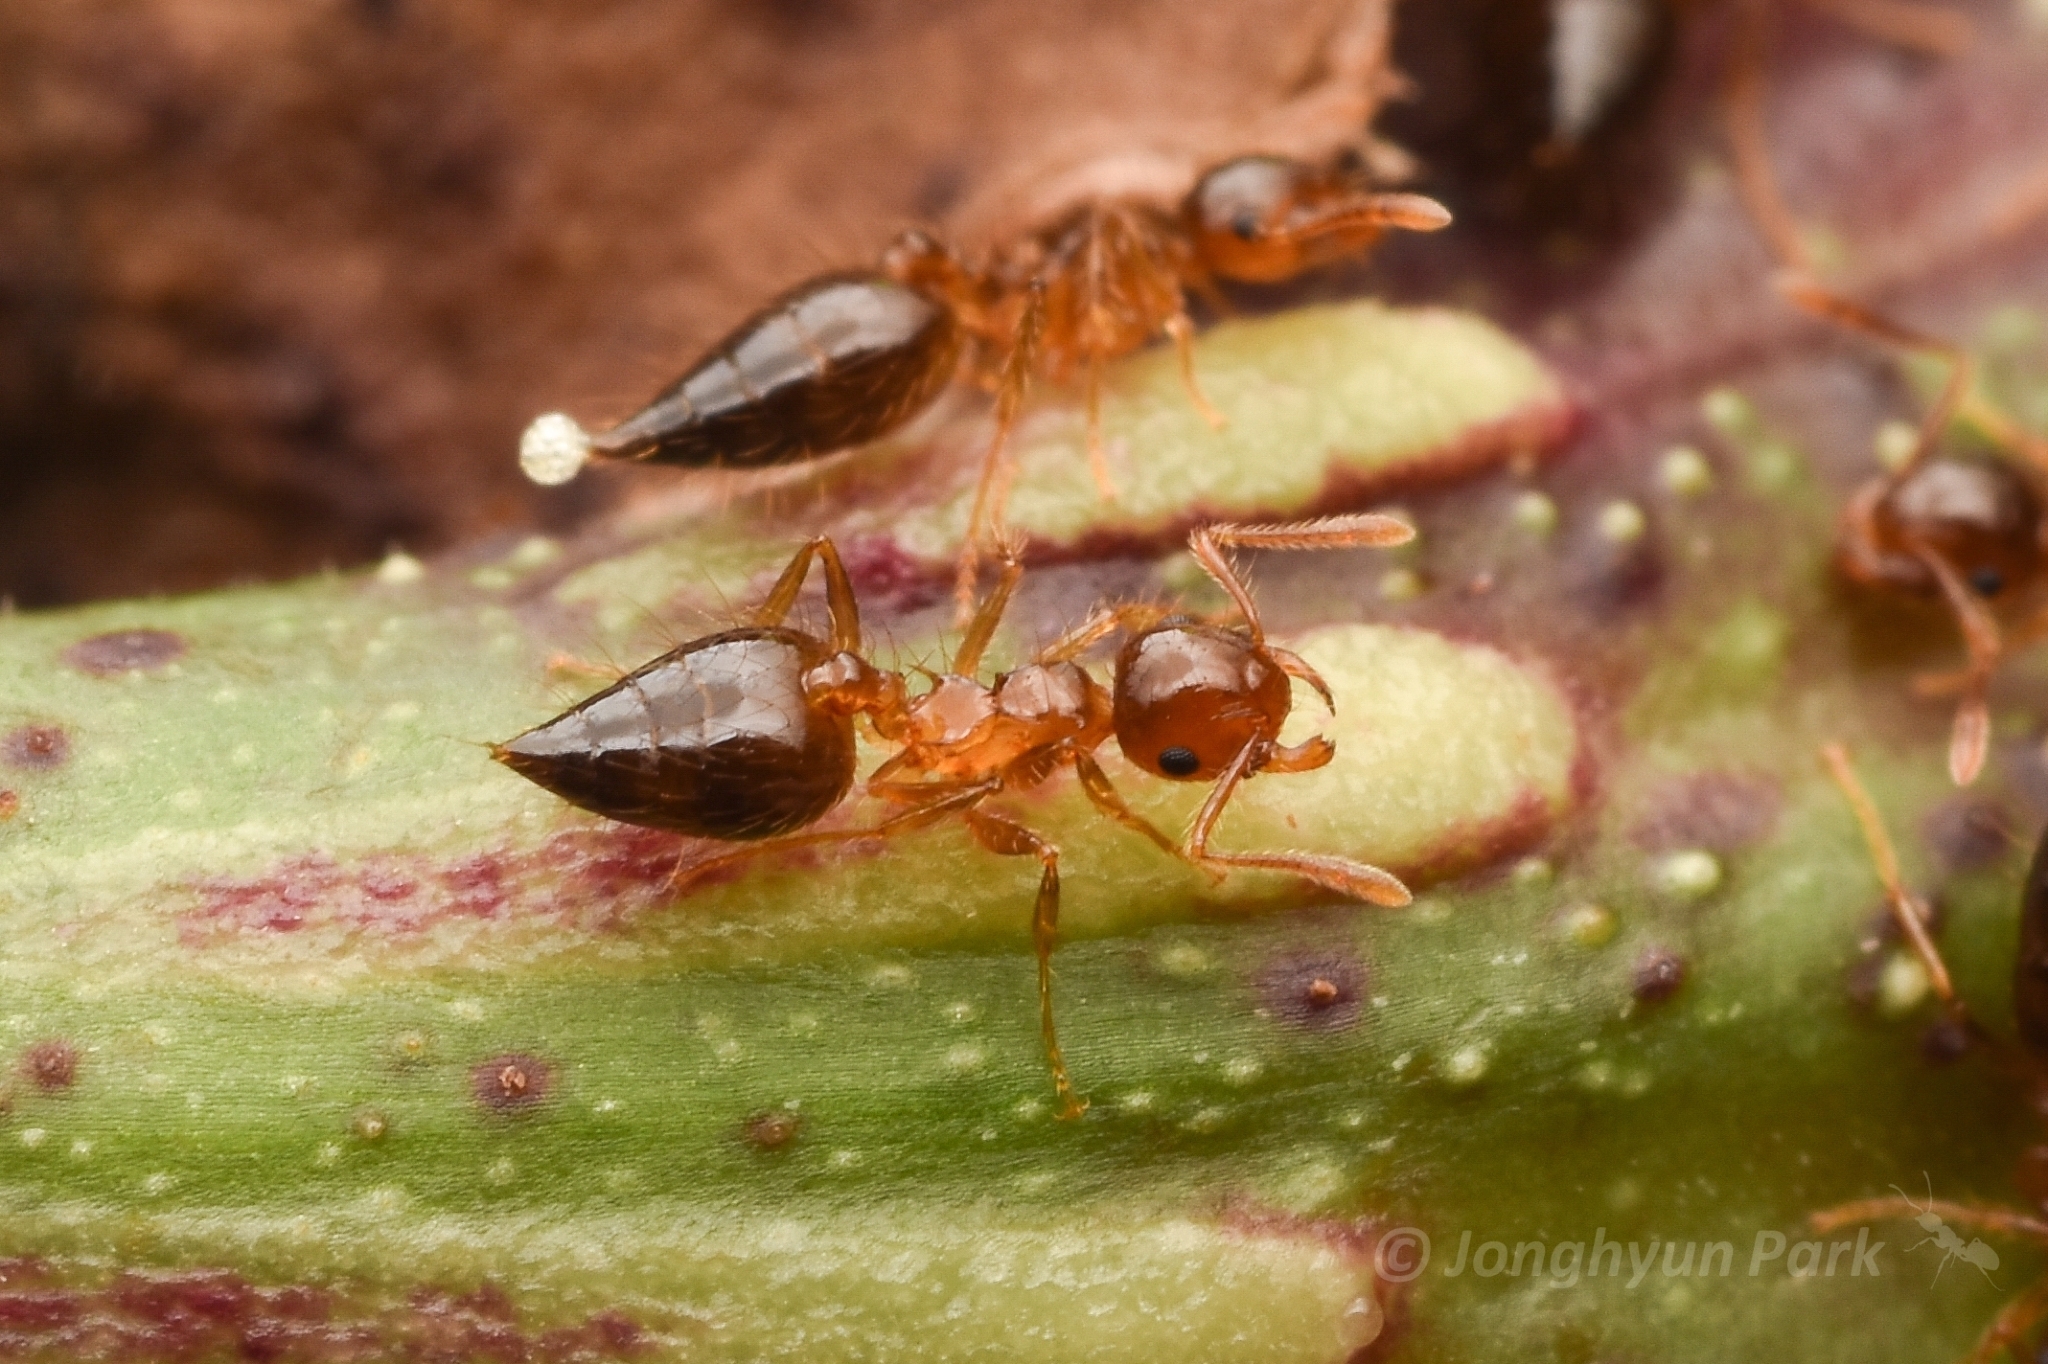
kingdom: Animalia
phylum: Arthropoda
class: Insecta
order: Hymenoptera
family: Formicidae
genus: Crematogaster
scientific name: Crematogaster longipilosa
